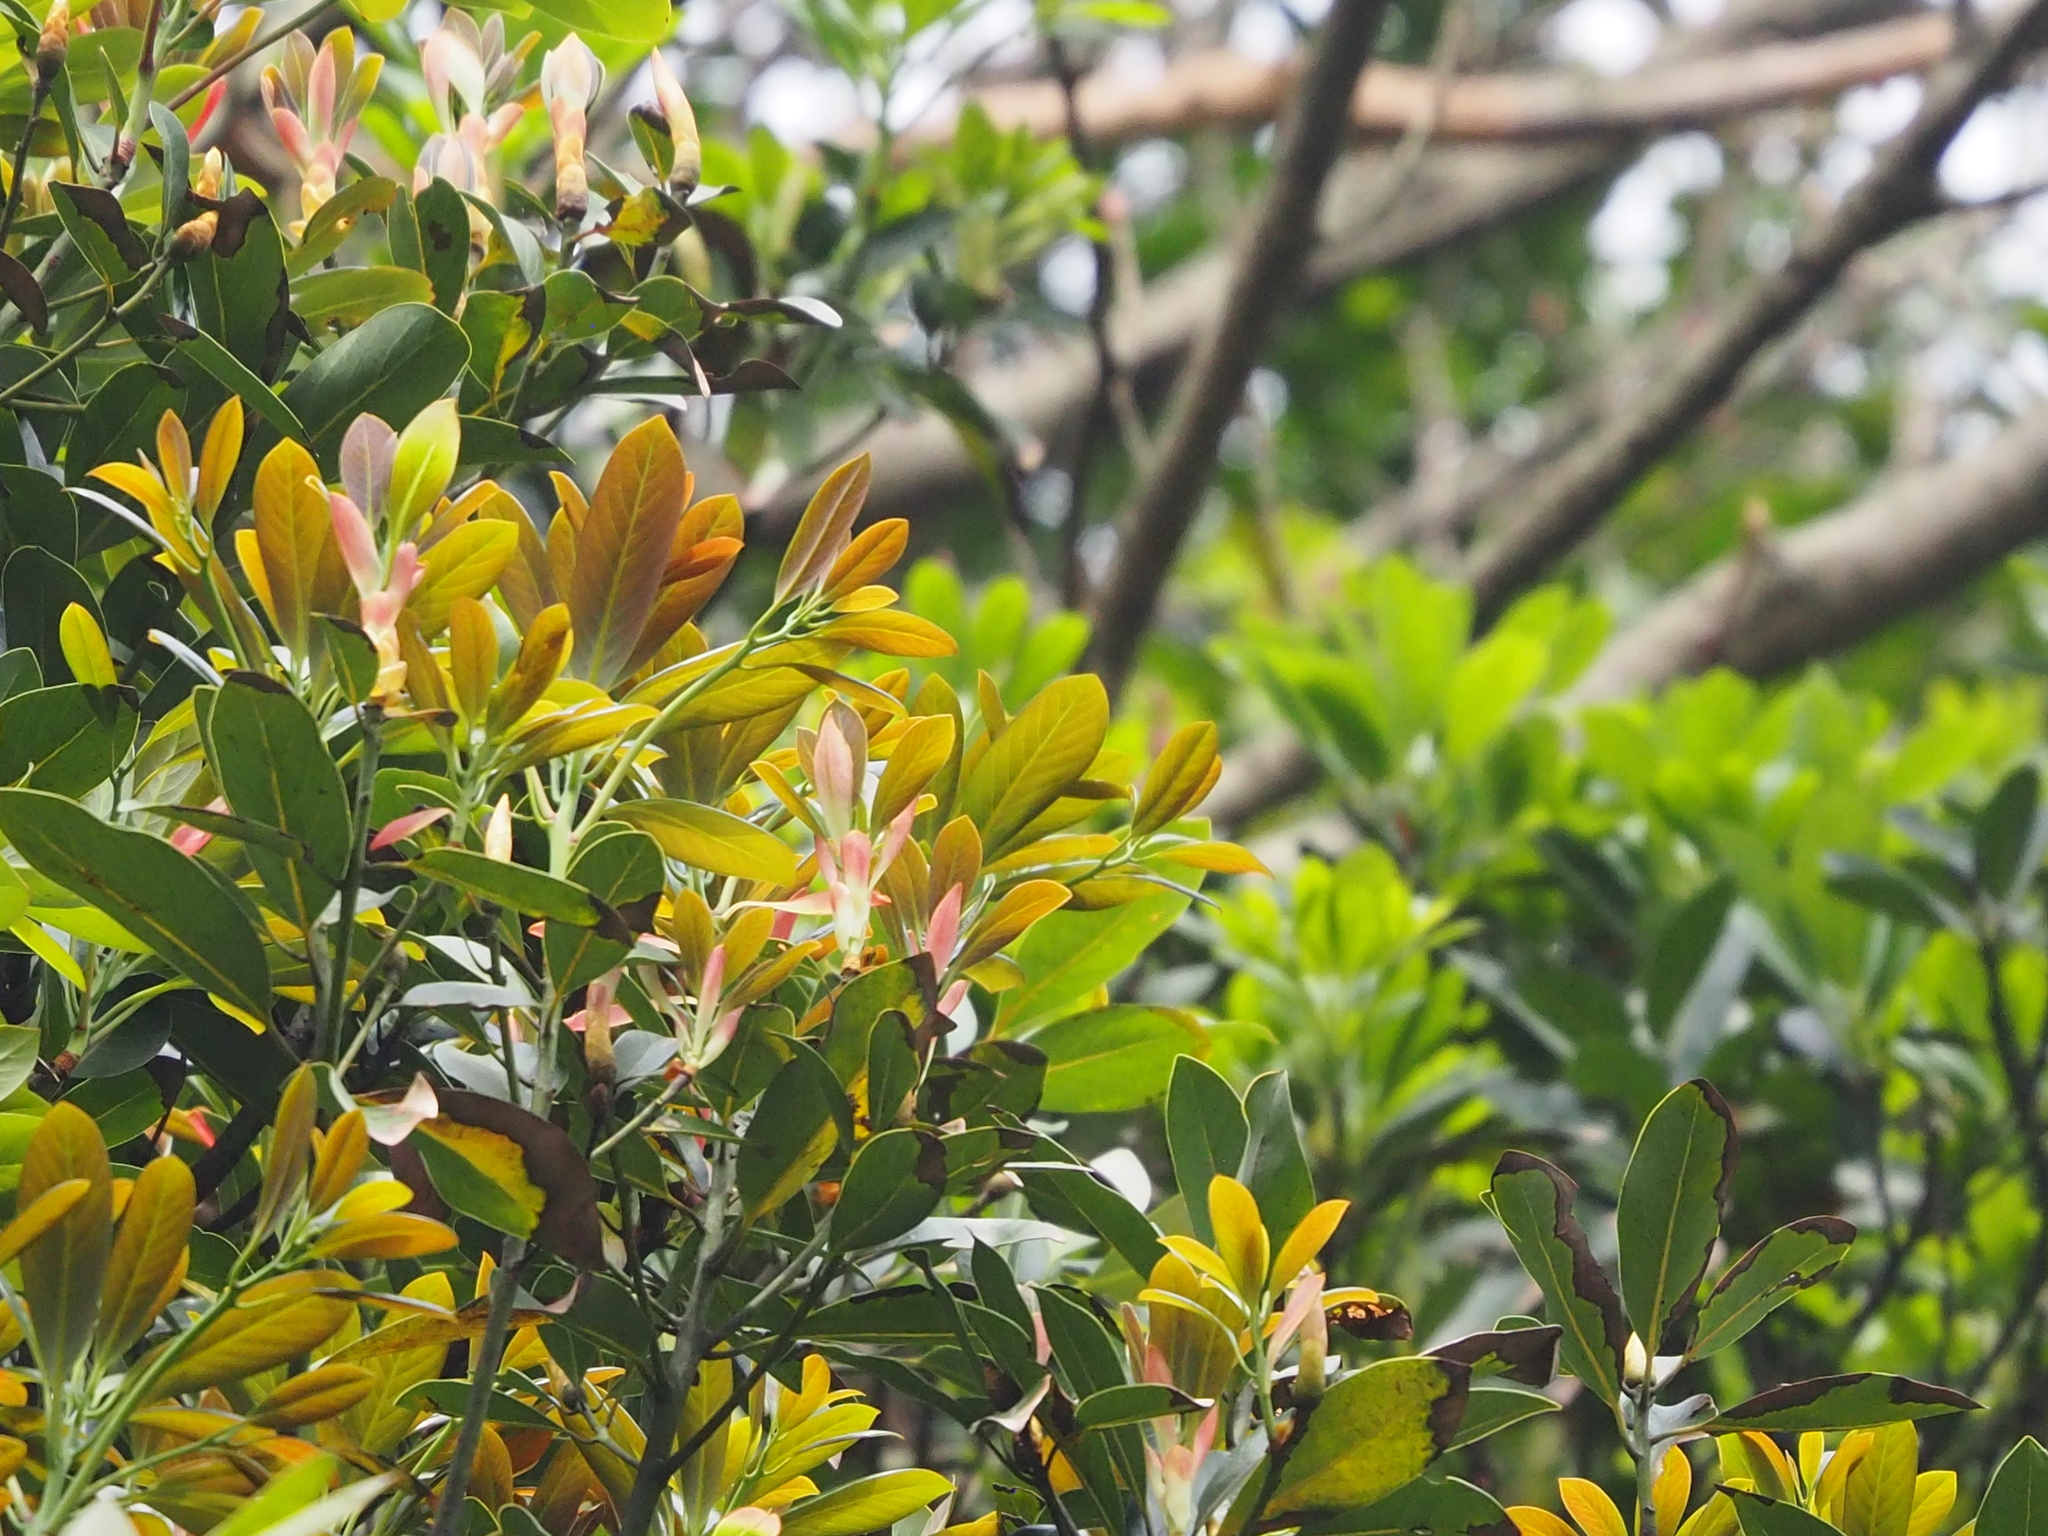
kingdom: Plantae
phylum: Tracheophyta
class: Magnoliopsida
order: Laurales
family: Lauraceae
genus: Machilus
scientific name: Machilus thunbergii
